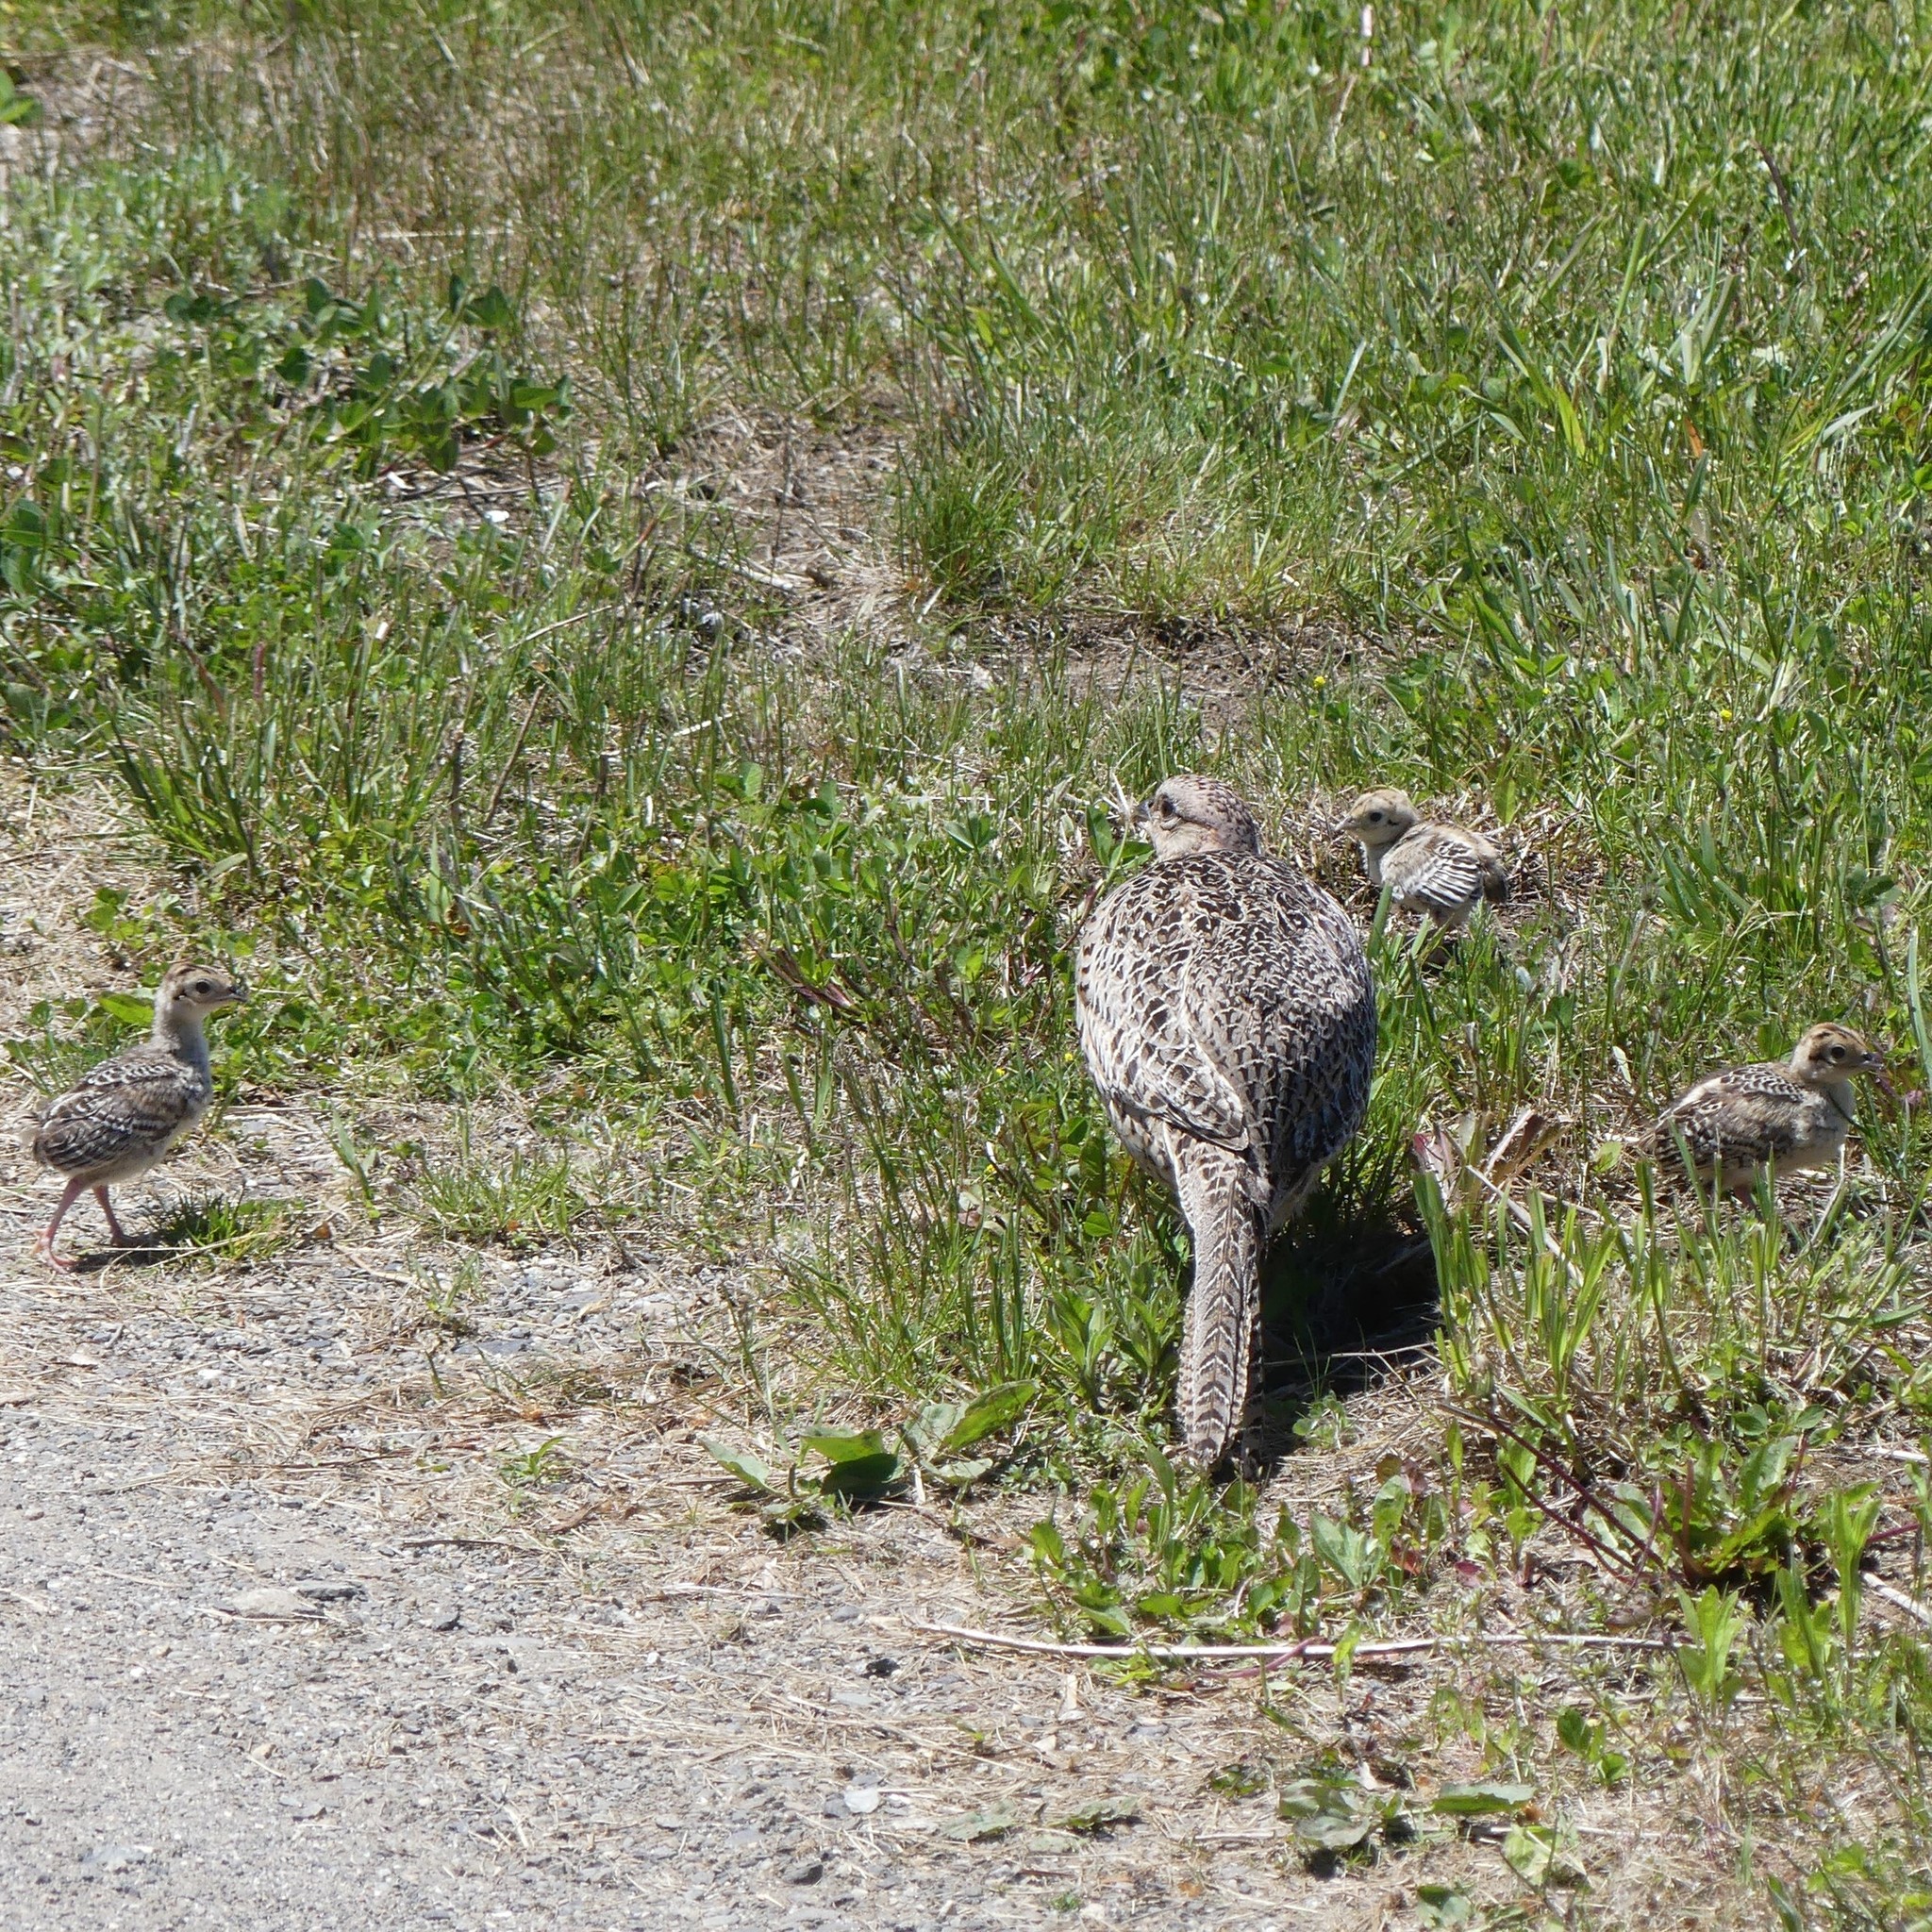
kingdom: Animalia
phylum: Chordata
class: Aves
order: Galliformes
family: Phasianidae
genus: Phasianus
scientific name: Phasianus colchicus
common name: Common pheasant
